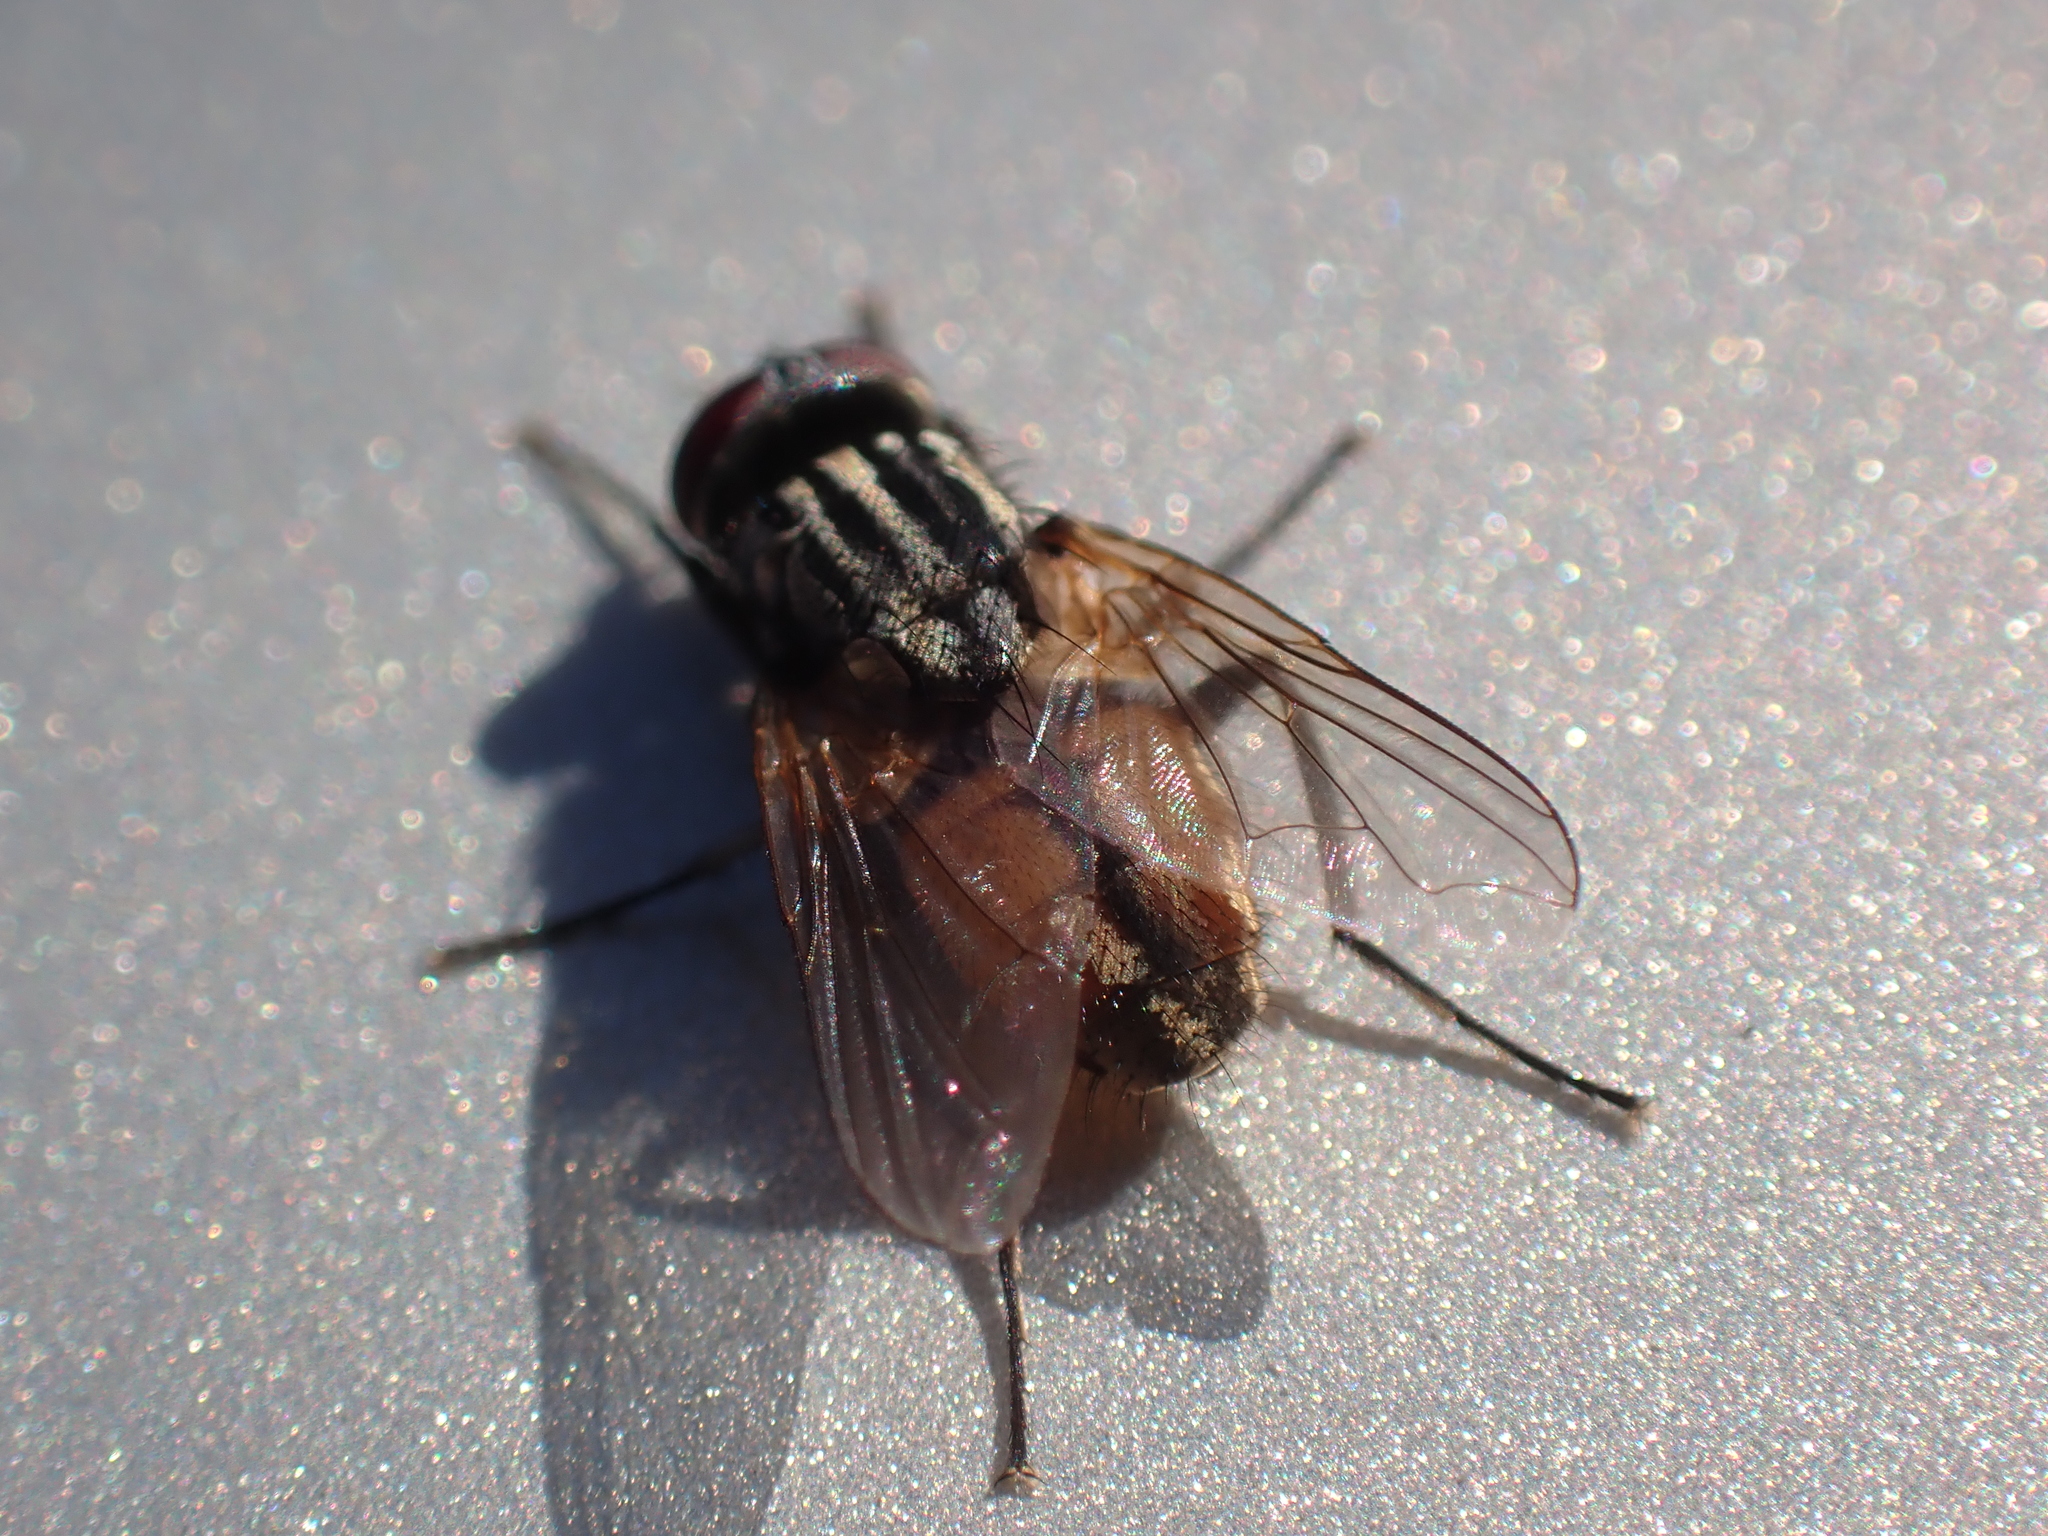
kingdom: Animalia
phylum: Arthropoda
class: Insecta
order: Diptera
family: Muscidae
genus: Musca
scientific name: Musca domestica
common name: House fly
